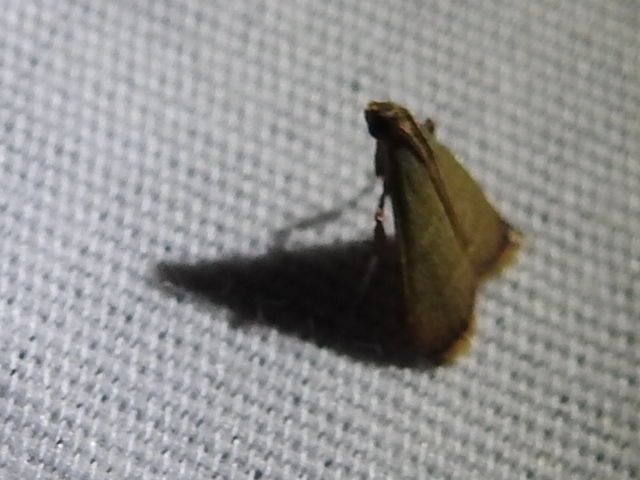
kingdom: Animalia
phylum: Arthropoda
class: Insecta
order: Lepidoptera
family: Pyralidae
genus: Arta
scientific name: Arta olivalis
